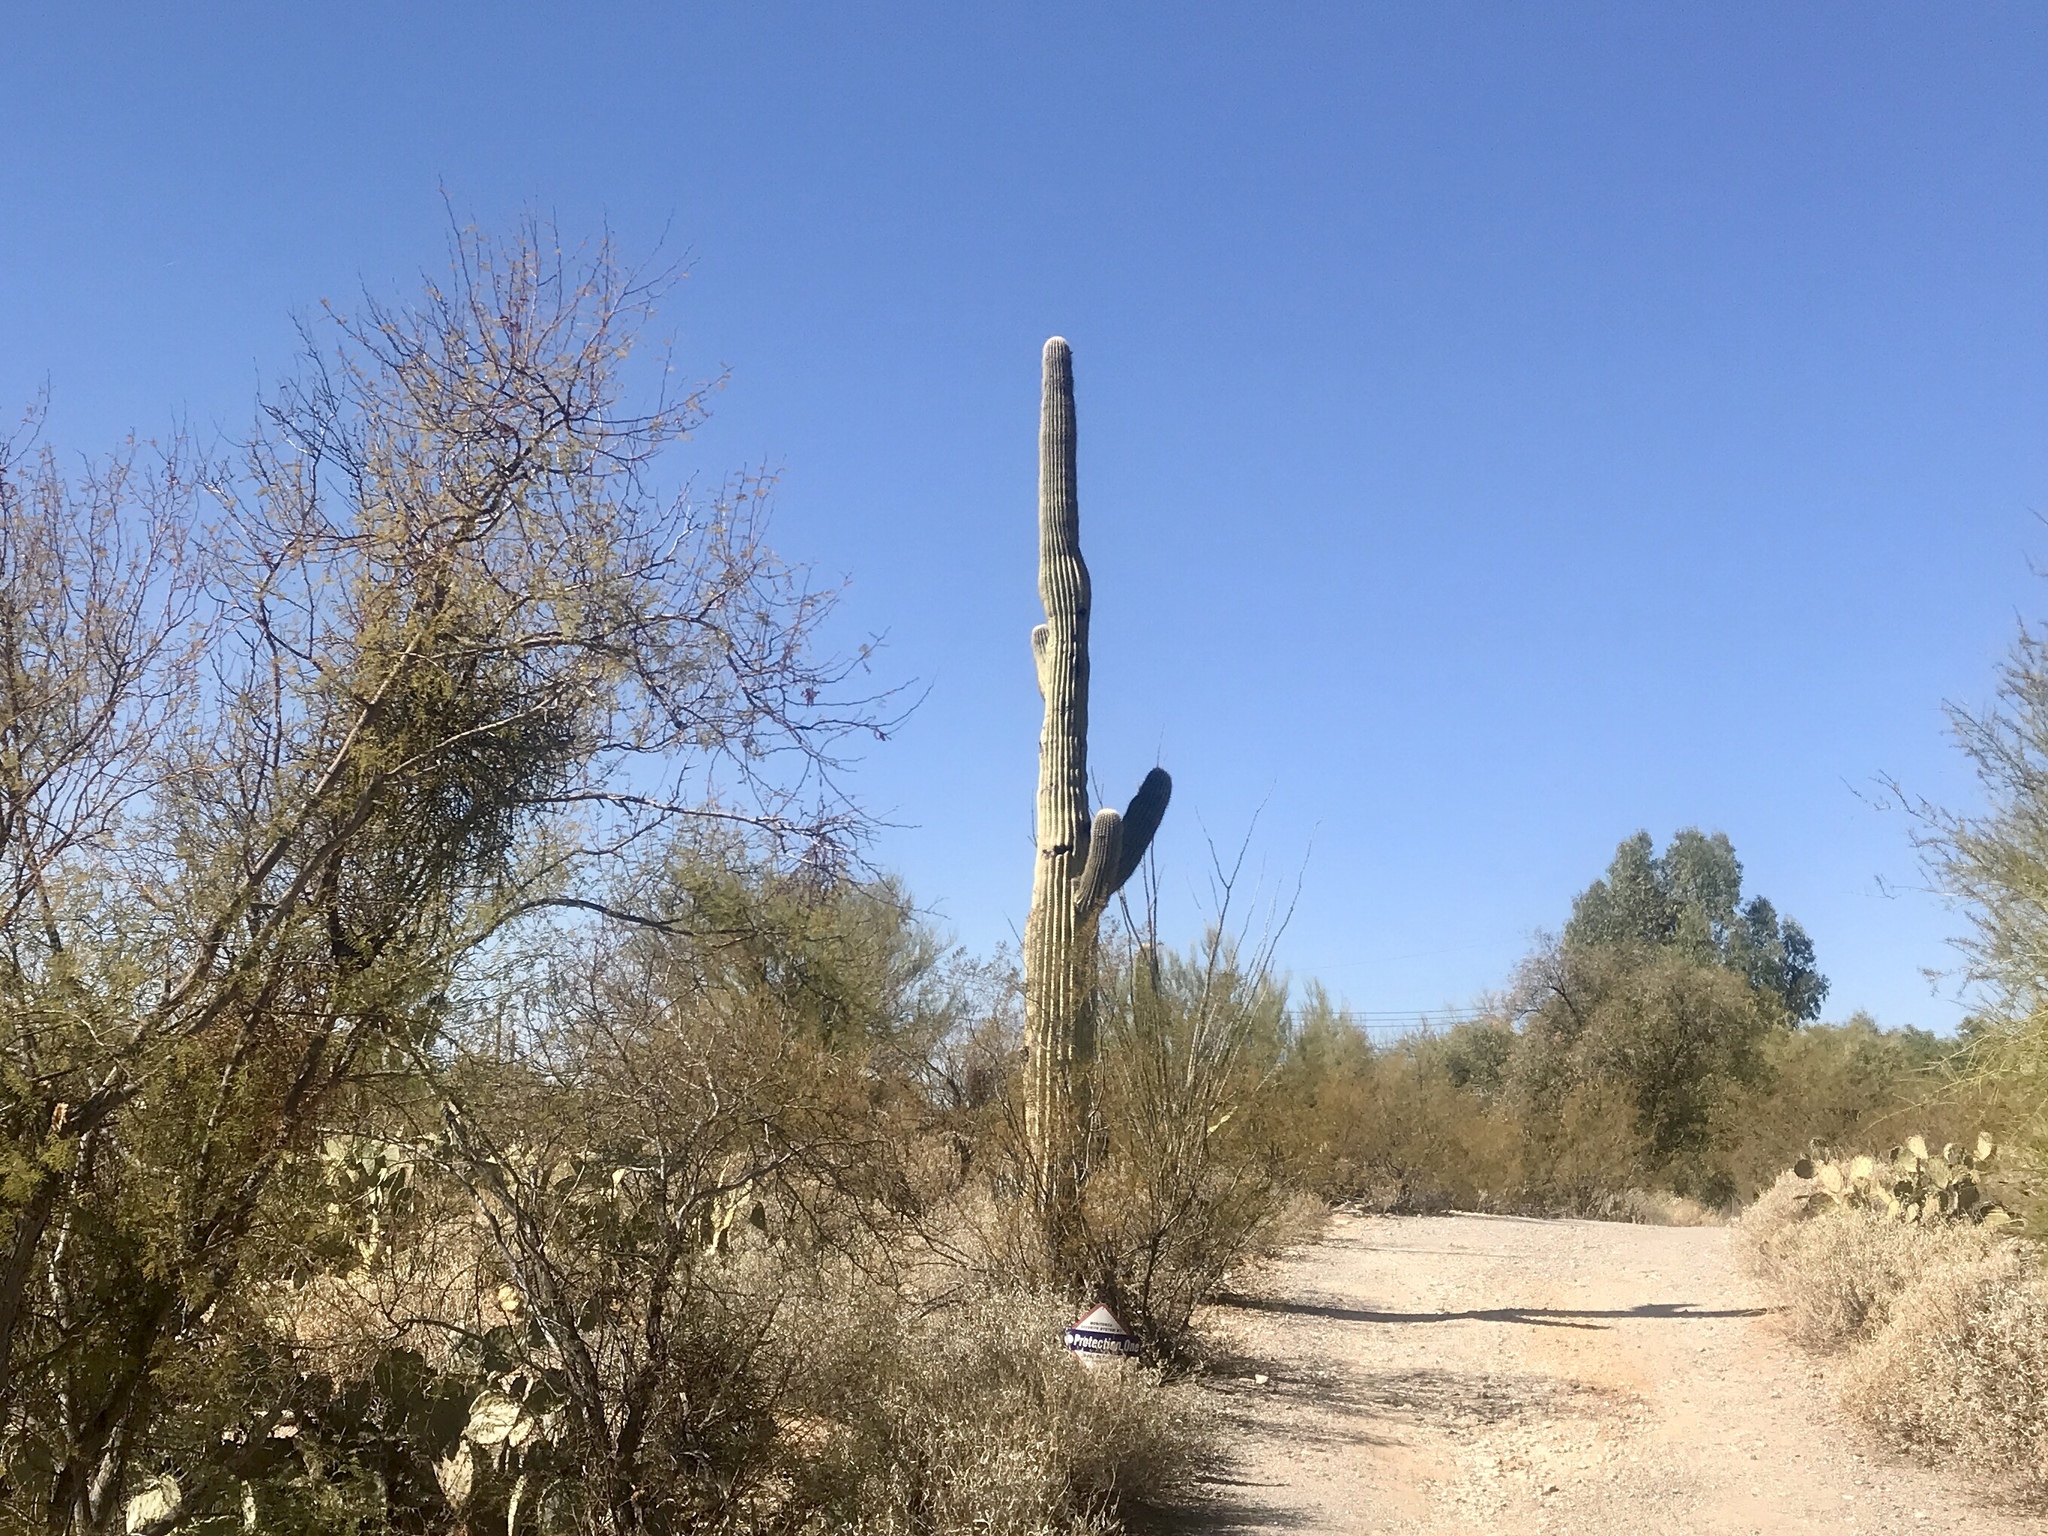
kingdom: Plantae
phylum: Tracheophyta
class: Magnoliopsida
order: Caryophyllales
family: Cactaceae
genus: Carnegiea
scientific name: Carnegiea gigantea
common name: Saguaro
